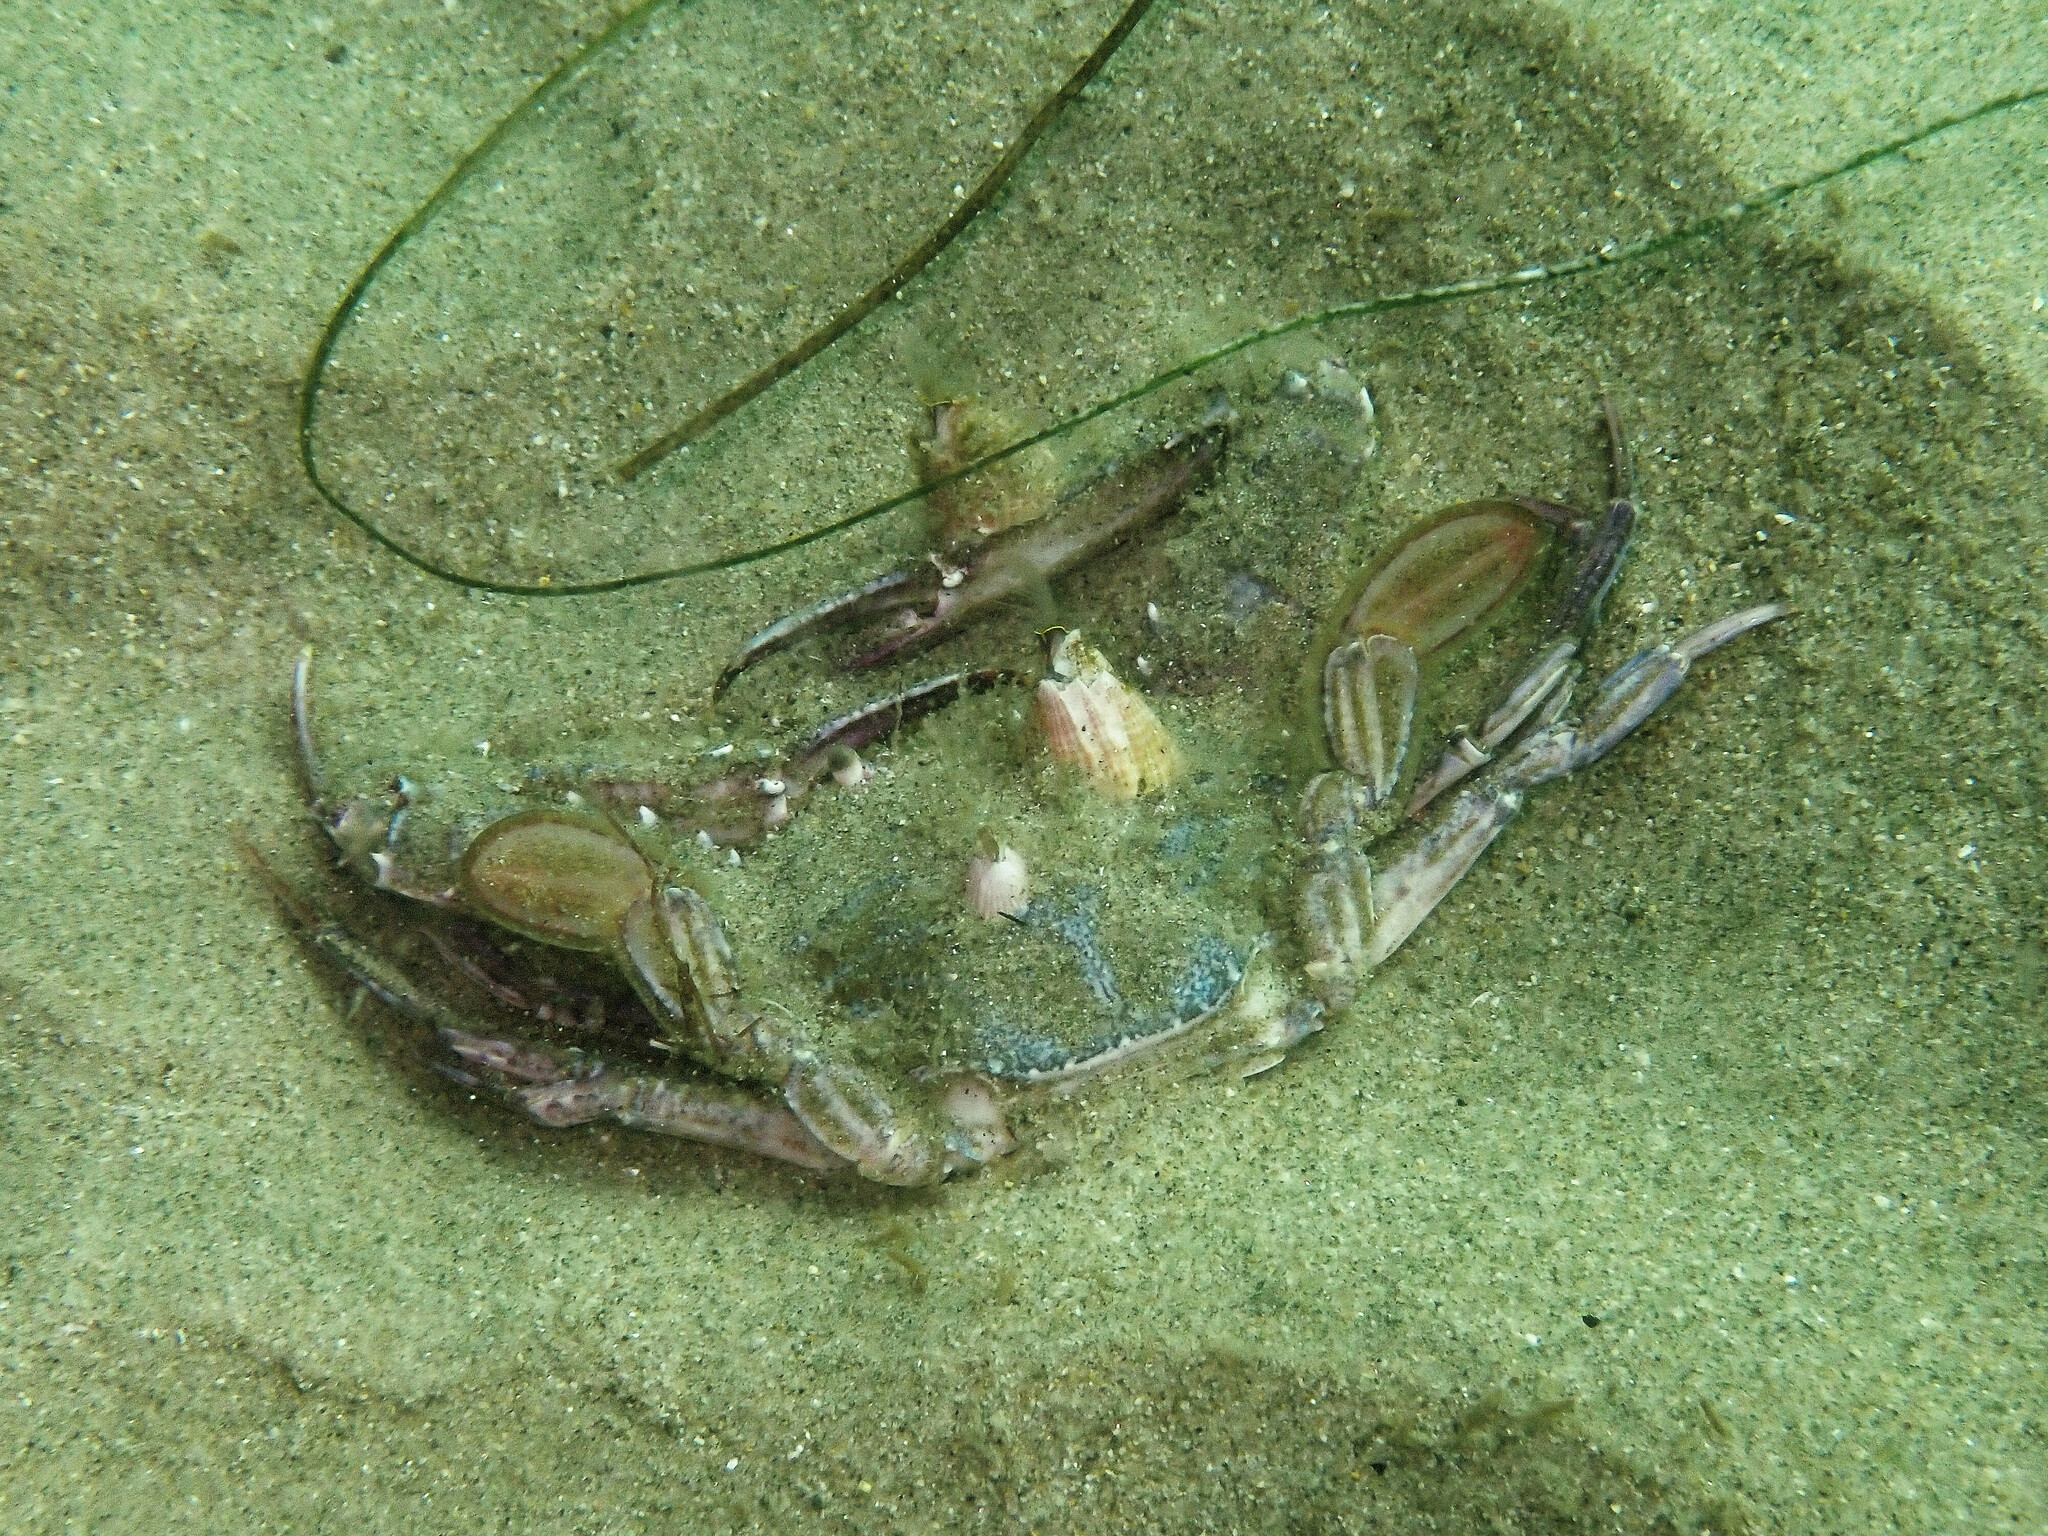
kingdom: Animalia
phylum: Arthropoda
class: Malacostraca
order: Decapoda
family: Portunidae
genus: Achelous
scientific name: Achelous xantusii
